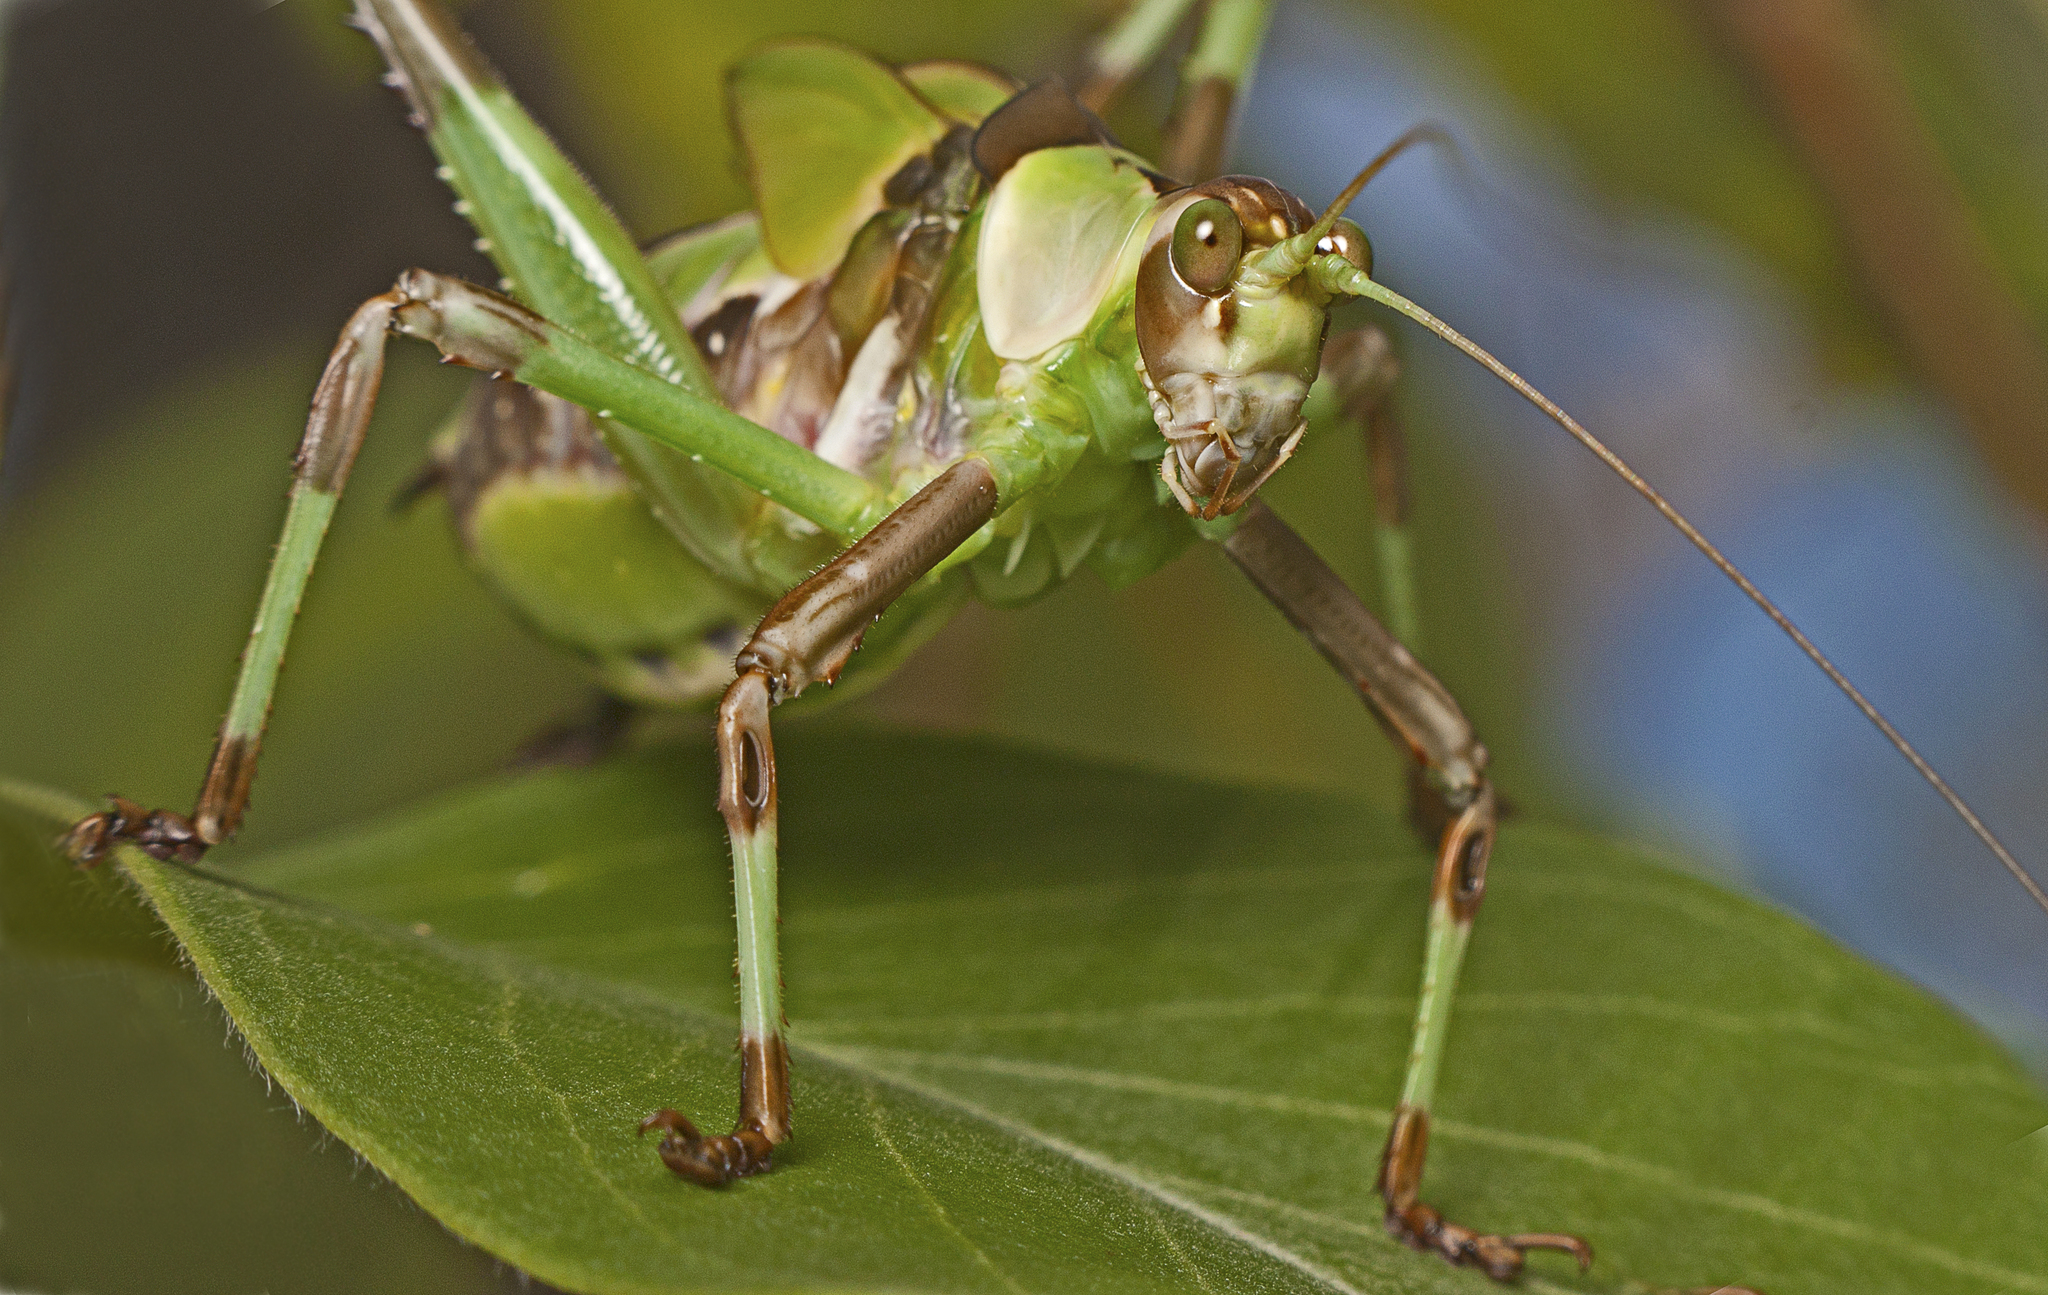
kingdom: Animalia
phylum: Arthropoda
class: Insecta
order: Orthoptera
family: Tettigoniidae
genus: Ephippitytha
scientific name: Ephippitytha trigintiduoguttata
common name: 32-spotted katydid
